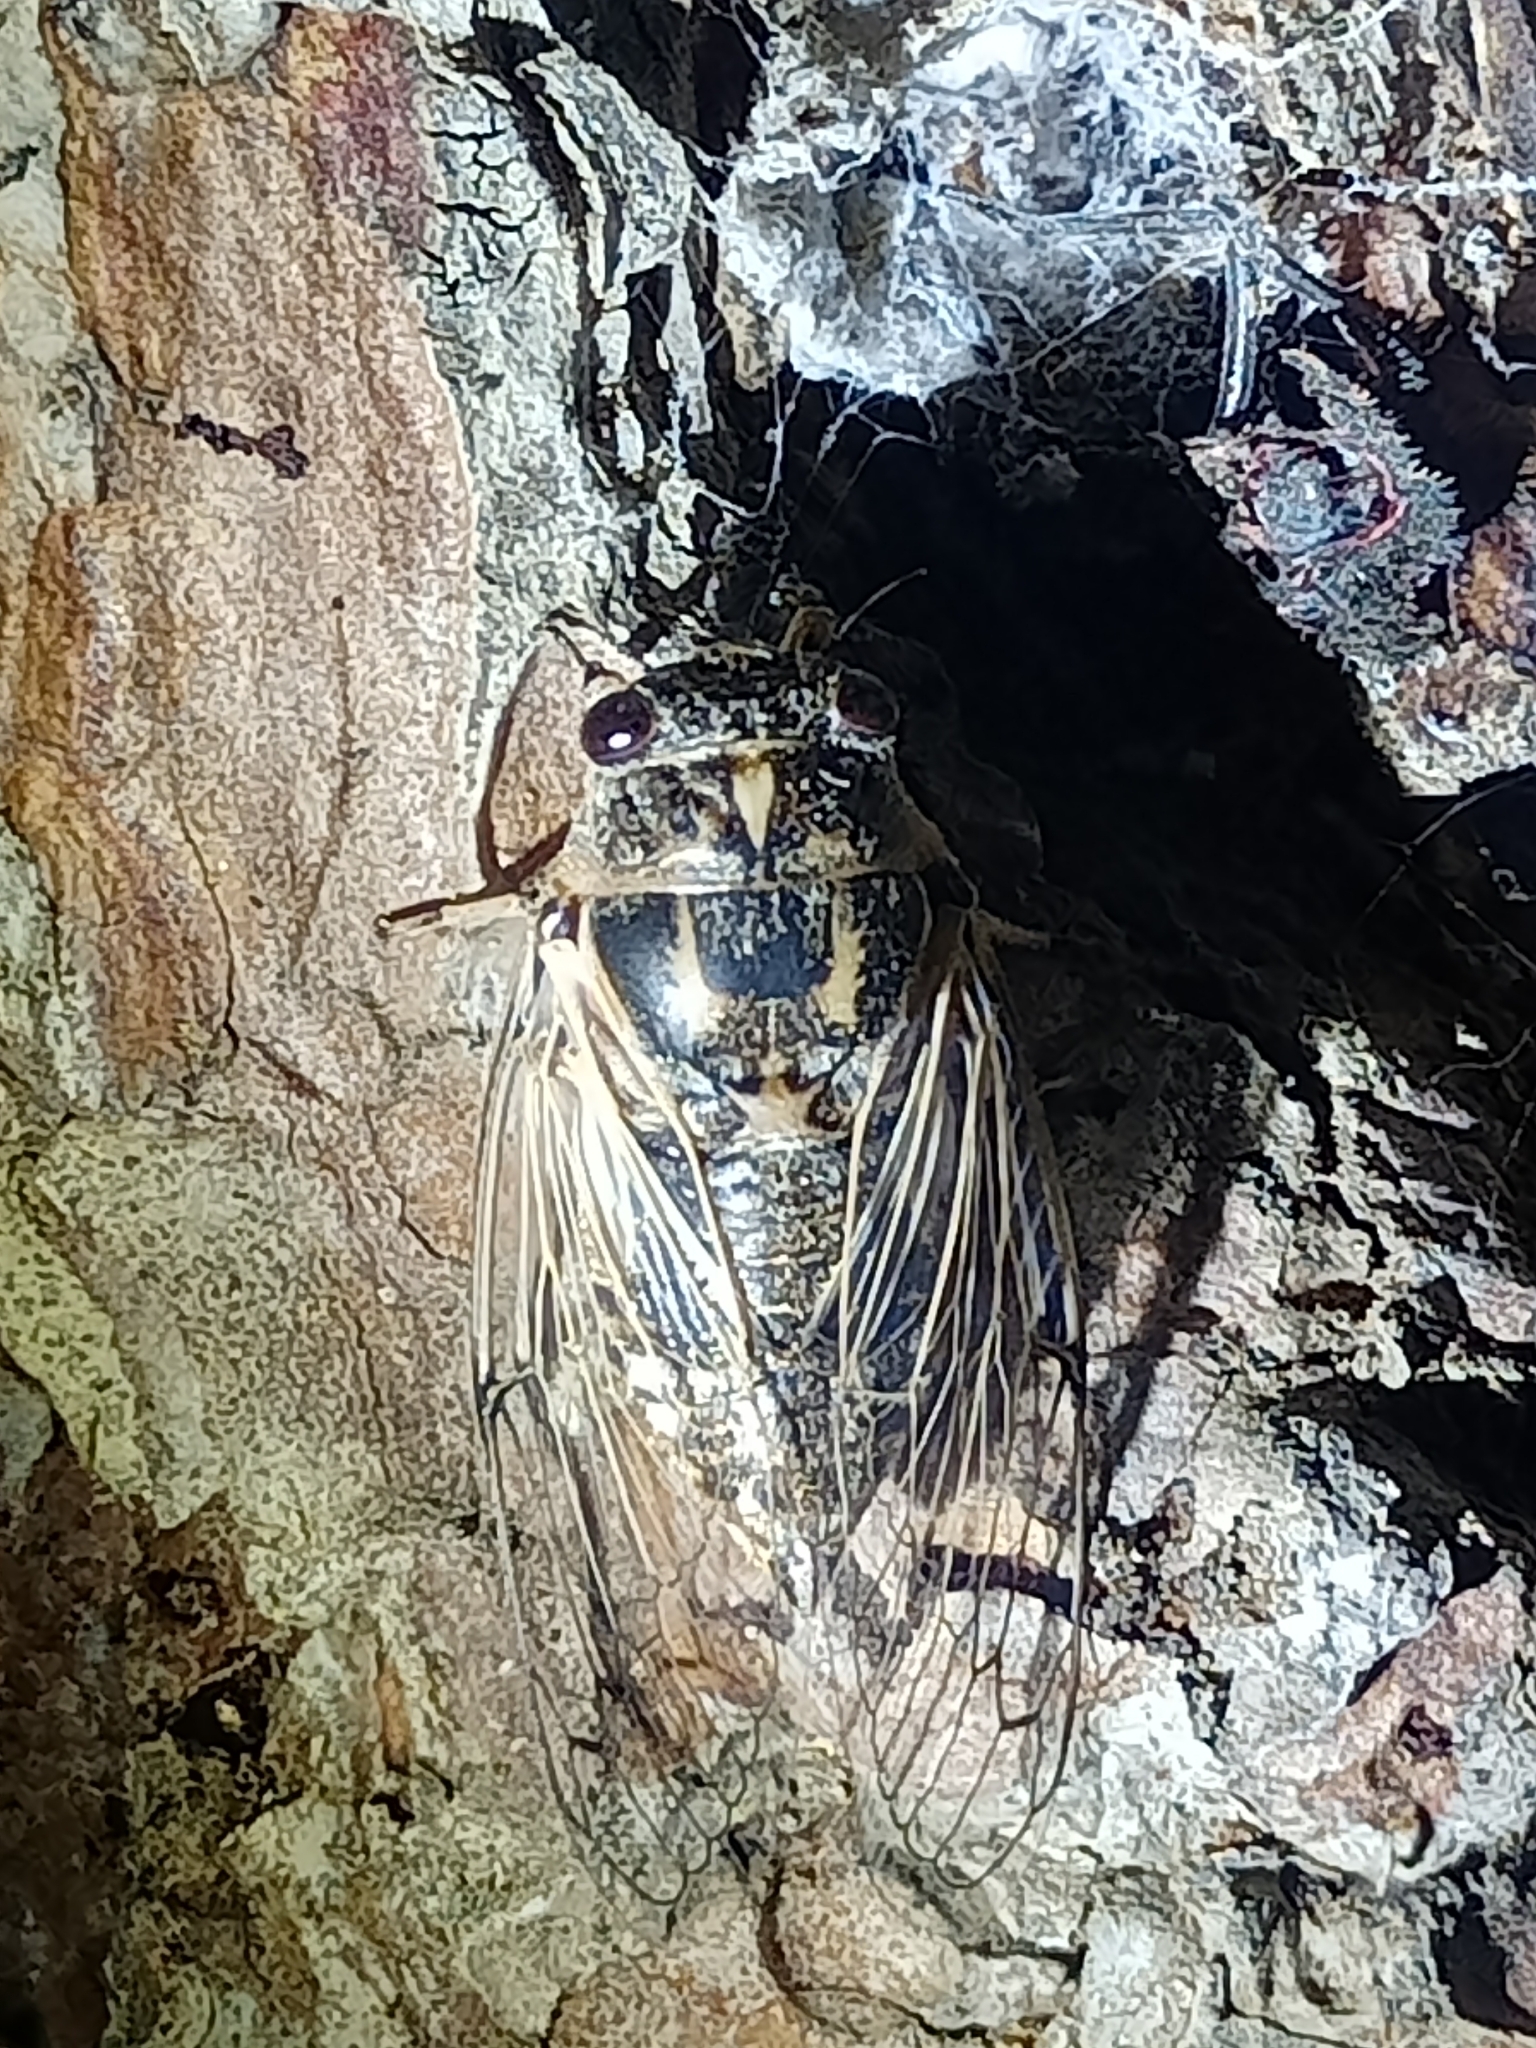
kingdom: Animalia
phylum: Arthropoda
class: Insecta
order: Hemiptera
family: Cicadidae
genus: Cicadatra
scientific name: Cicadatra platyptera
